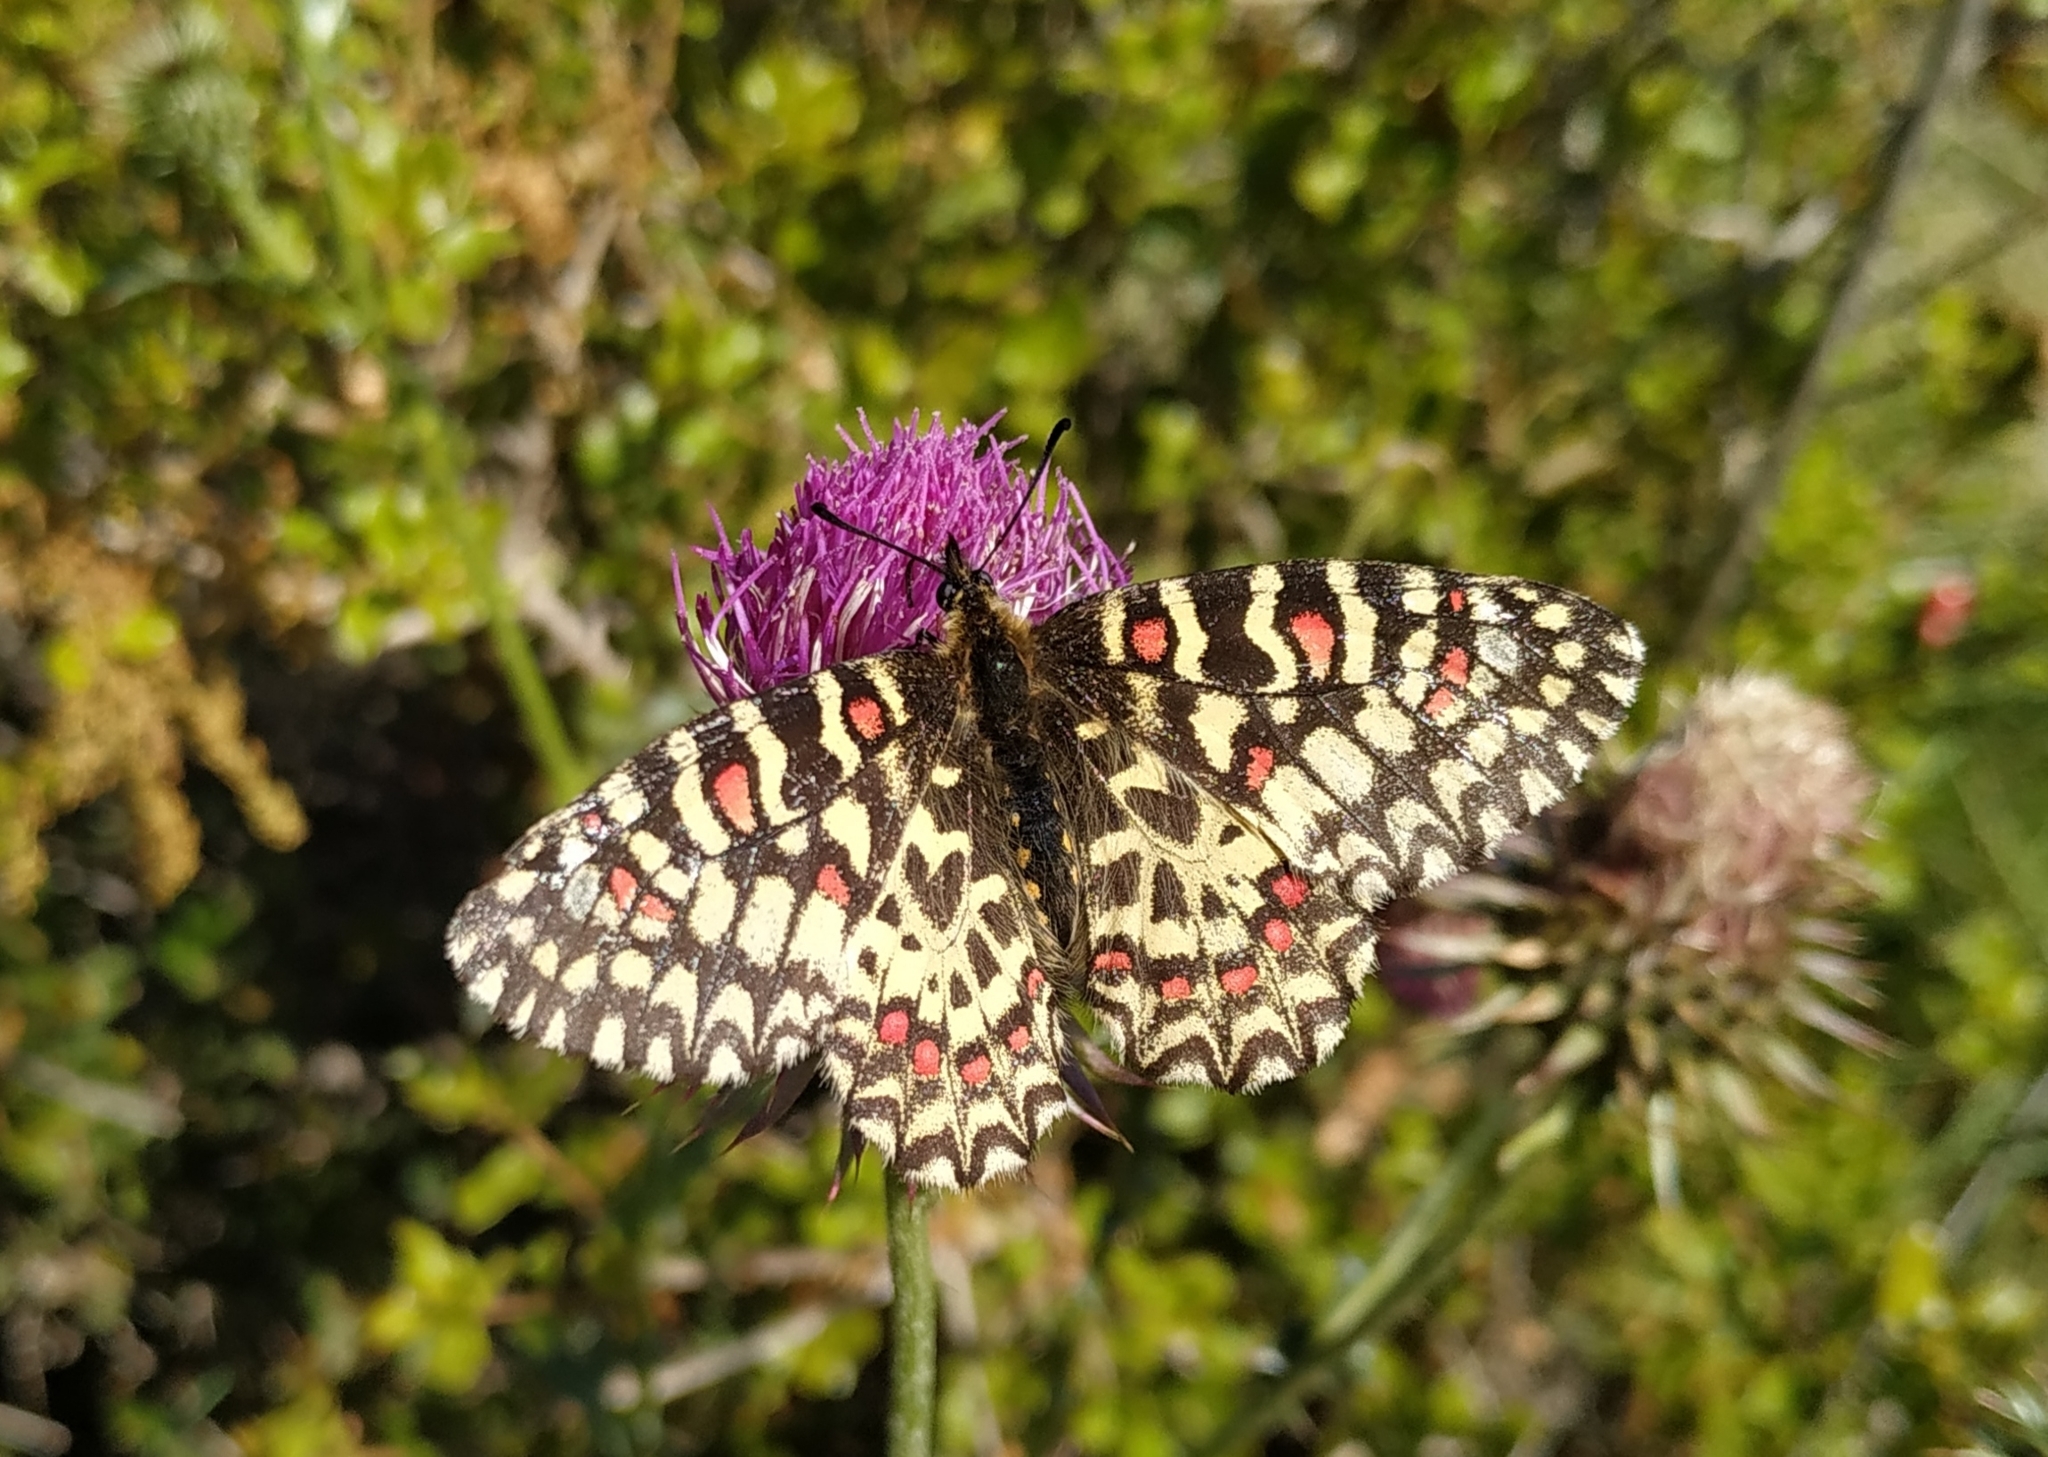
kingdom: Animalia
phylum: Arthropoda
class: Insecta
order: Lepidoptera
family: Papilionidae
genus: Zerynthia
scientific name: Zerynthia rumina
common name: Spanish festoon
